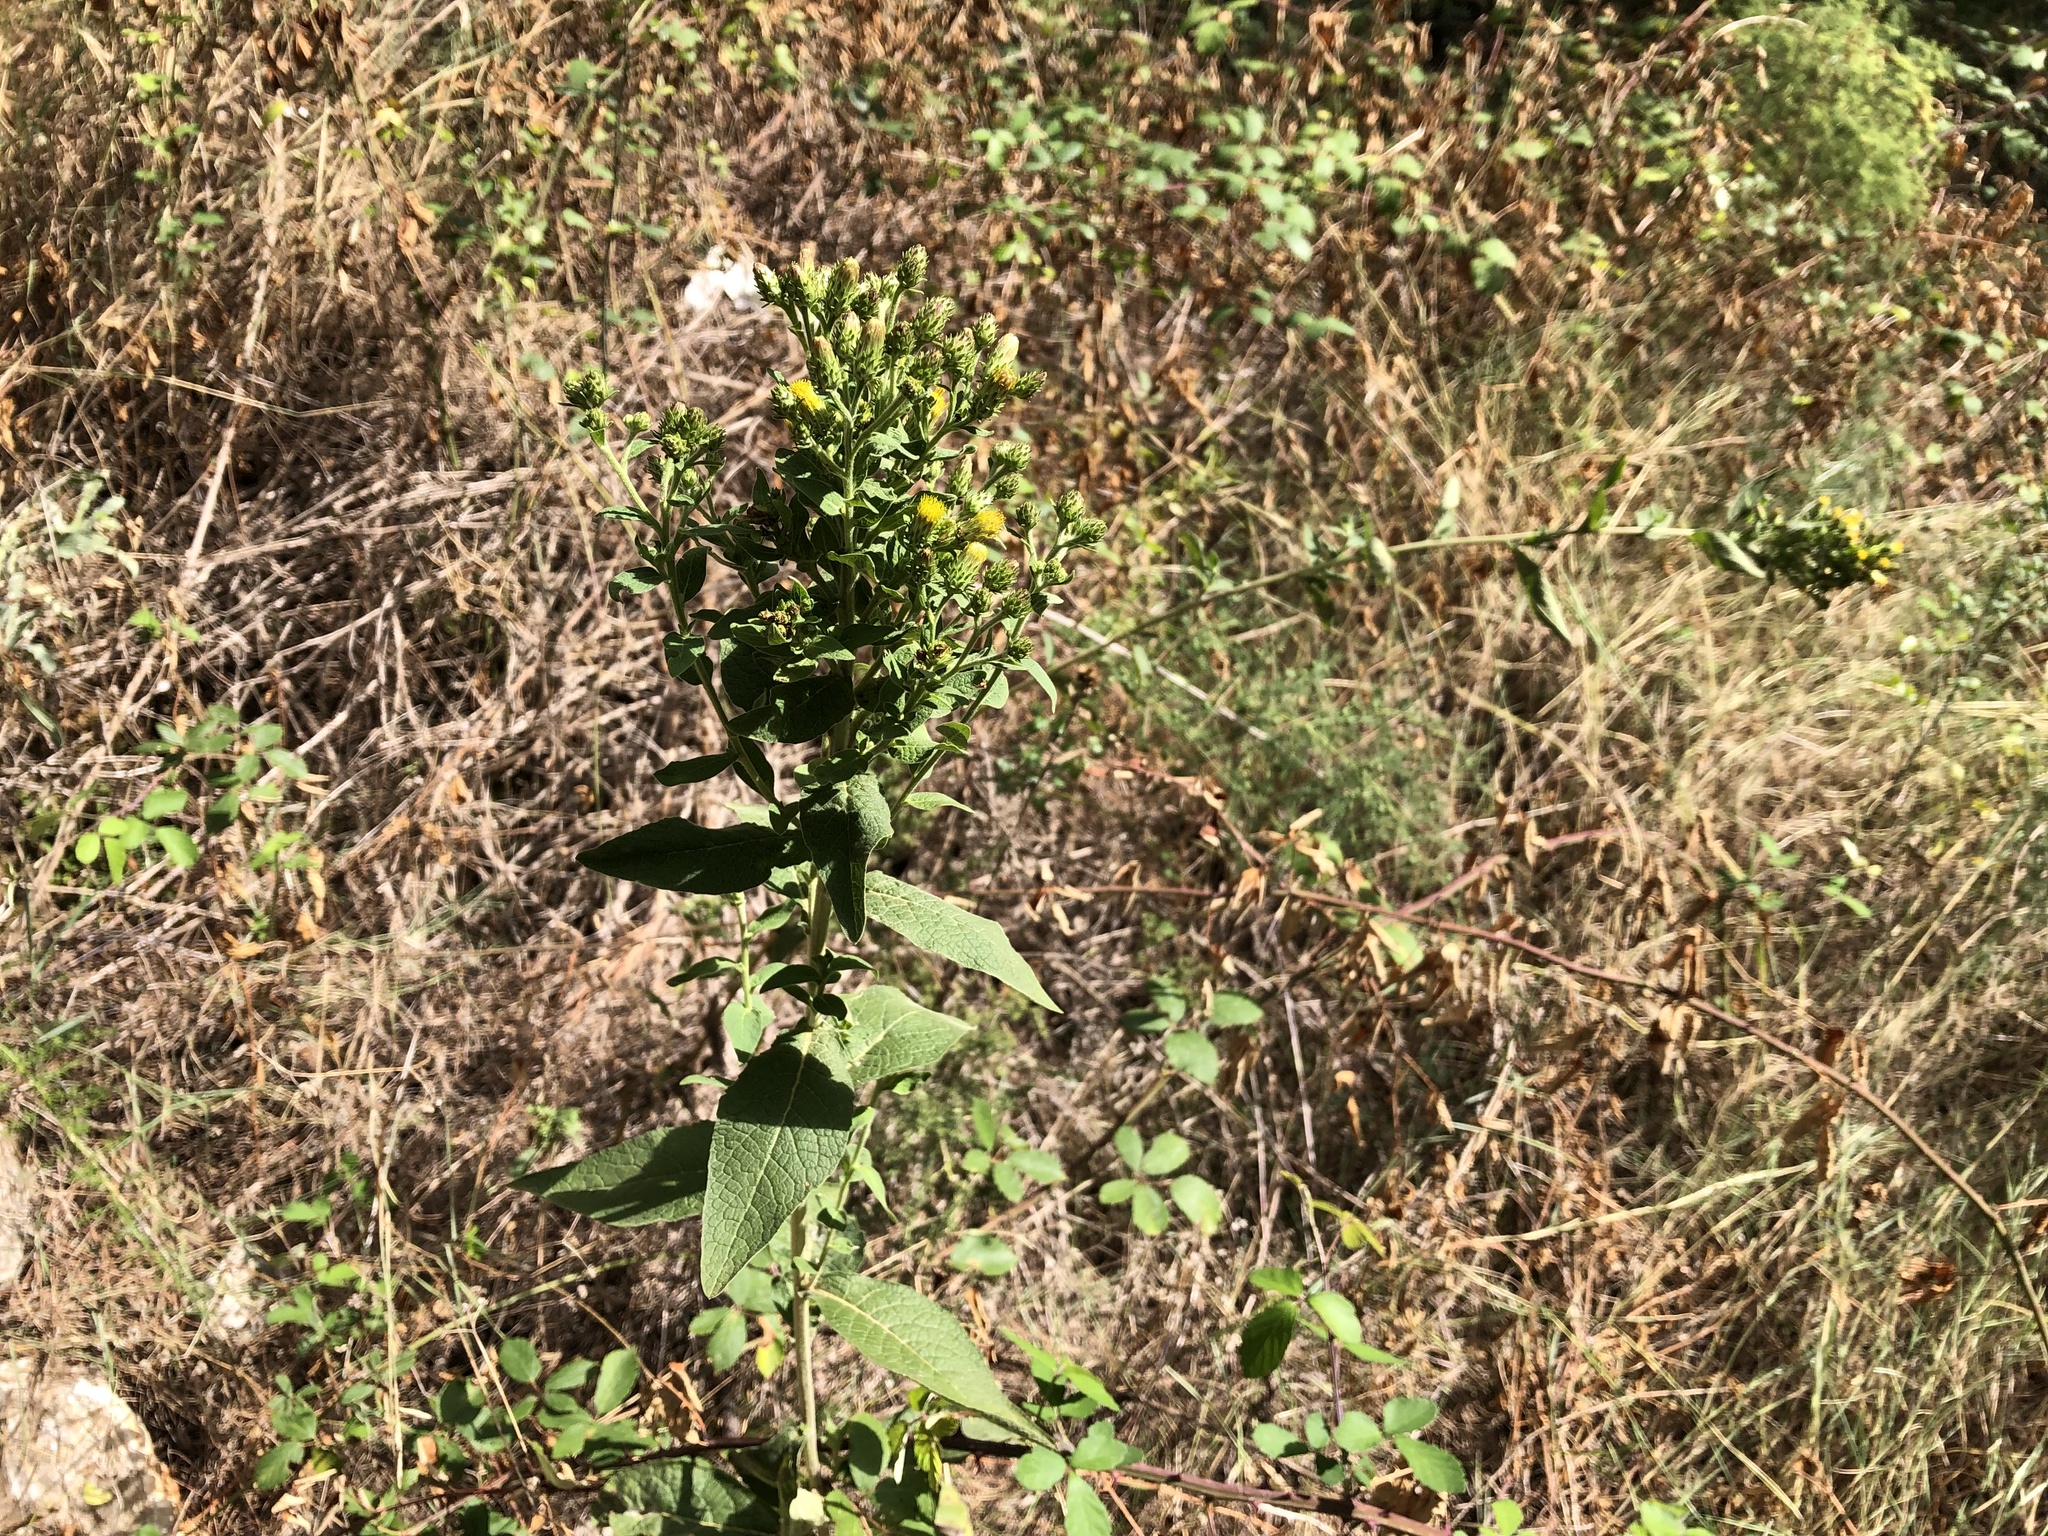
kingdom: Plantae
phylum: Tracheophyta
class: Magnoliopsida
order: Asterales
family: Asteraceae
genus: Pentanema
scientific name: Pentanema squarrosum
